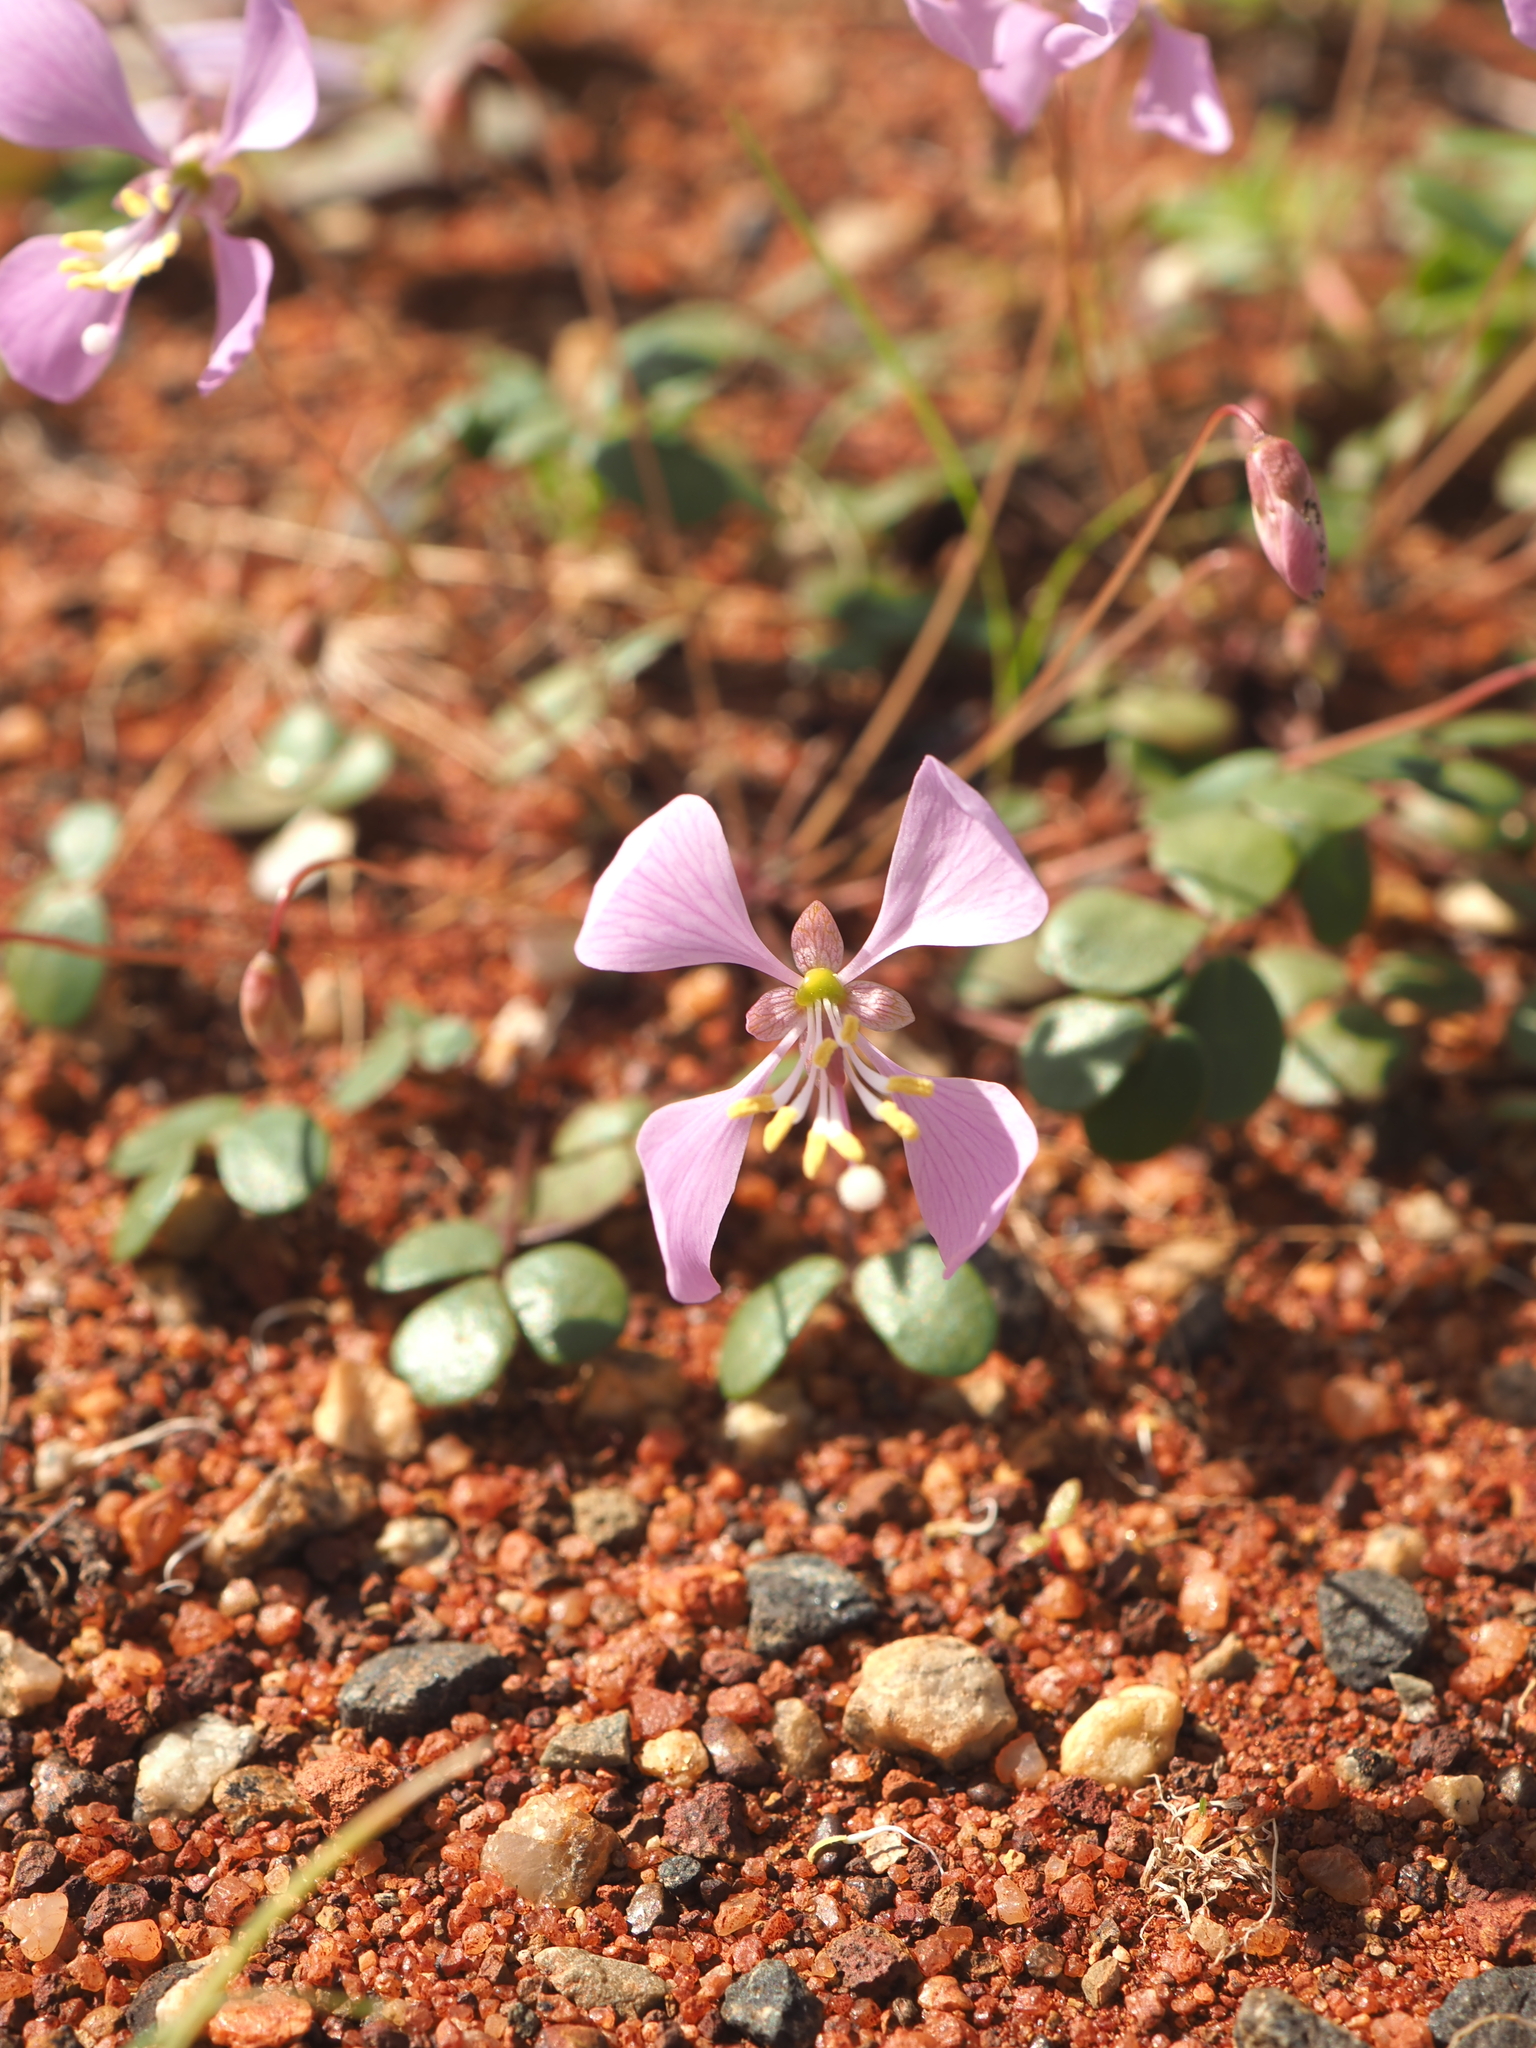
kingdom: Plantae
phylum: Tracheophyta
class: Magnoliopsida
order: Brassicales
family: Cleomaceae
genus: Areocleome
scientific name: Areocleome oxalidea
